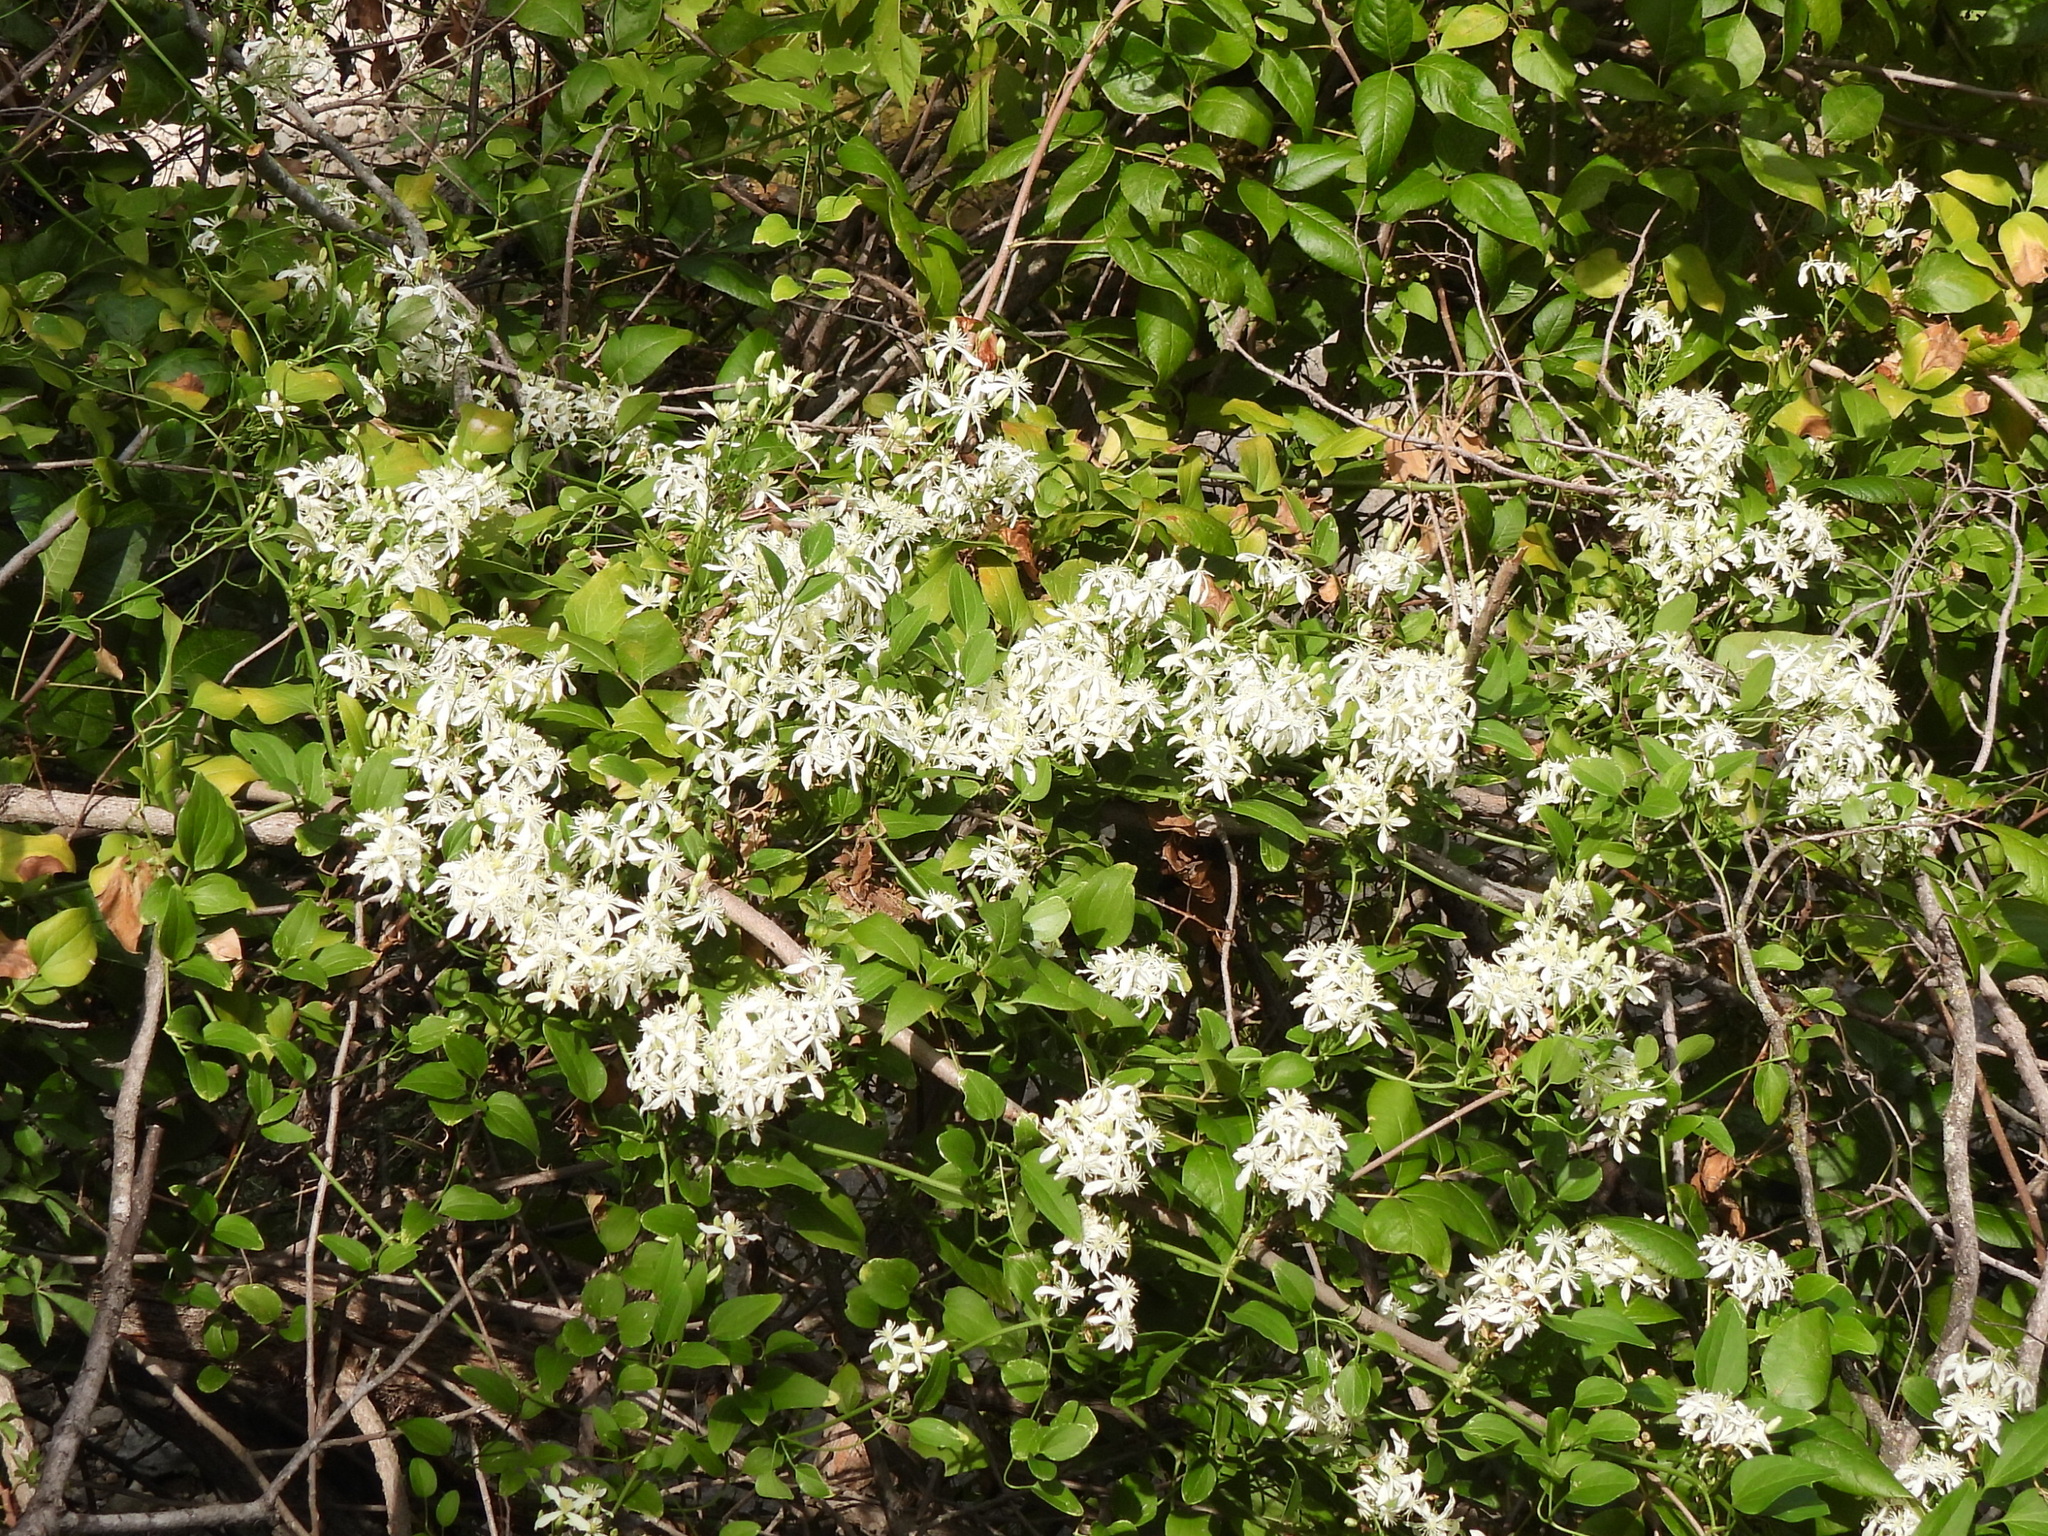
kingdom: Plantae
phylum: Tracheophyta
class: Magnoliopsida
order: Ranunculales
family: Ranunculaceae
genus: Clematis
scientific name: Clematis terniflora
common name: Sweet autumn clematis
